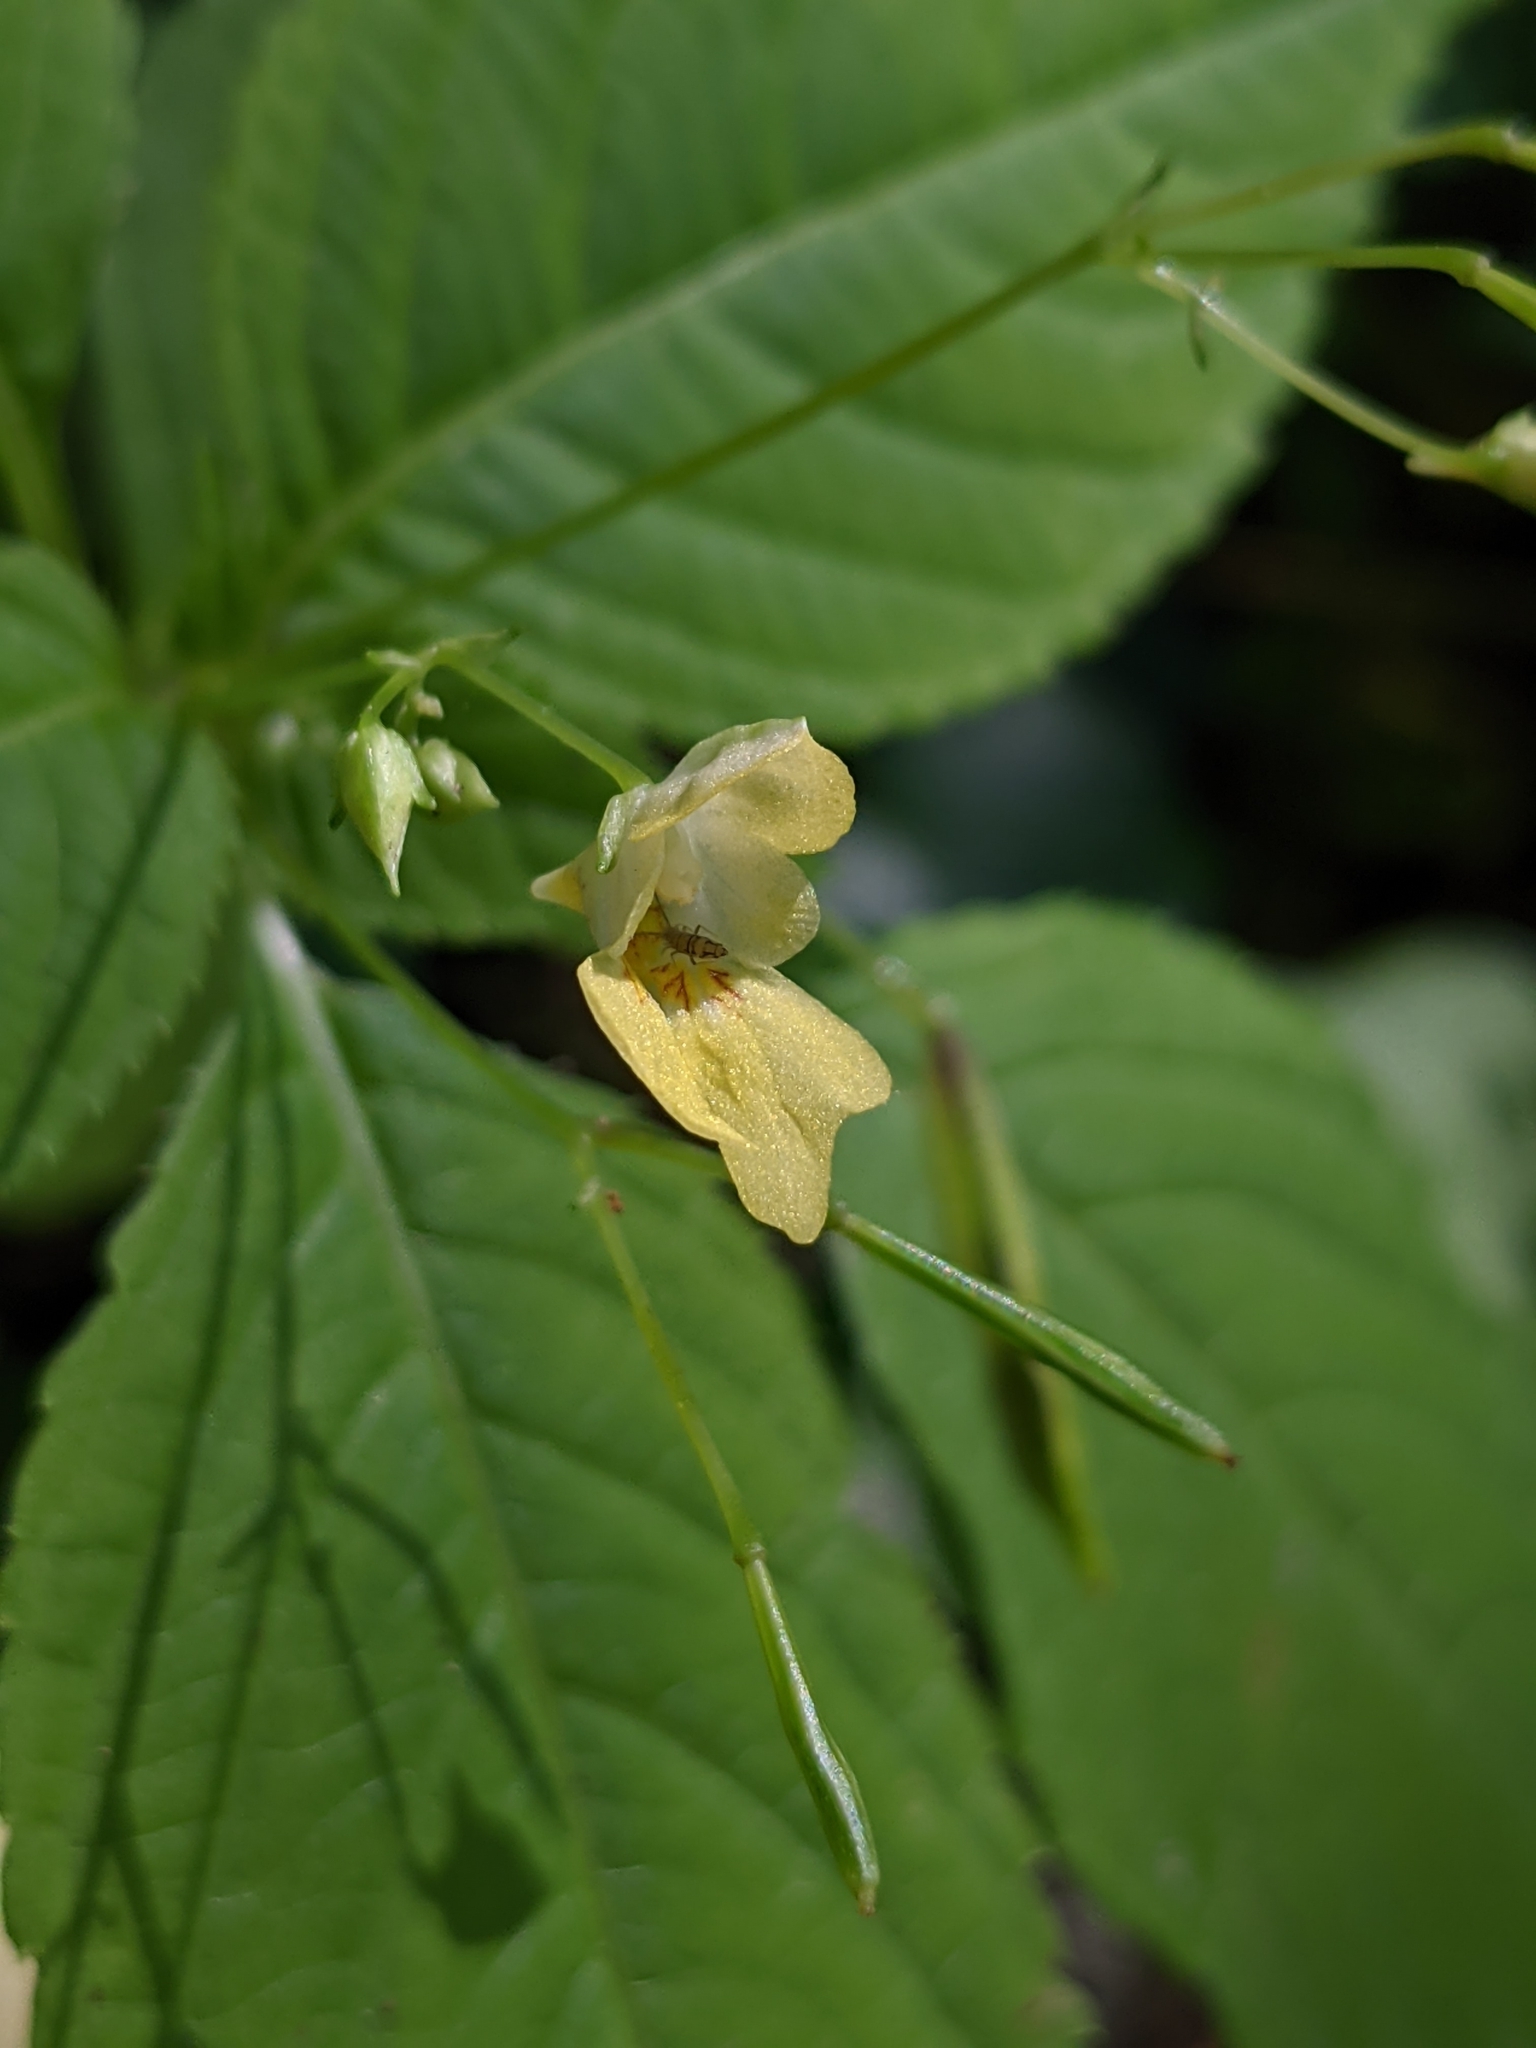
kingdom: Plantae
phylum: Tracheophyta
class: Magnoliopsida
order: Ericales
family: Balsaminaceae
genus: Impatiens
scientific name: Impatiens parviflora
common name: Small balsam
